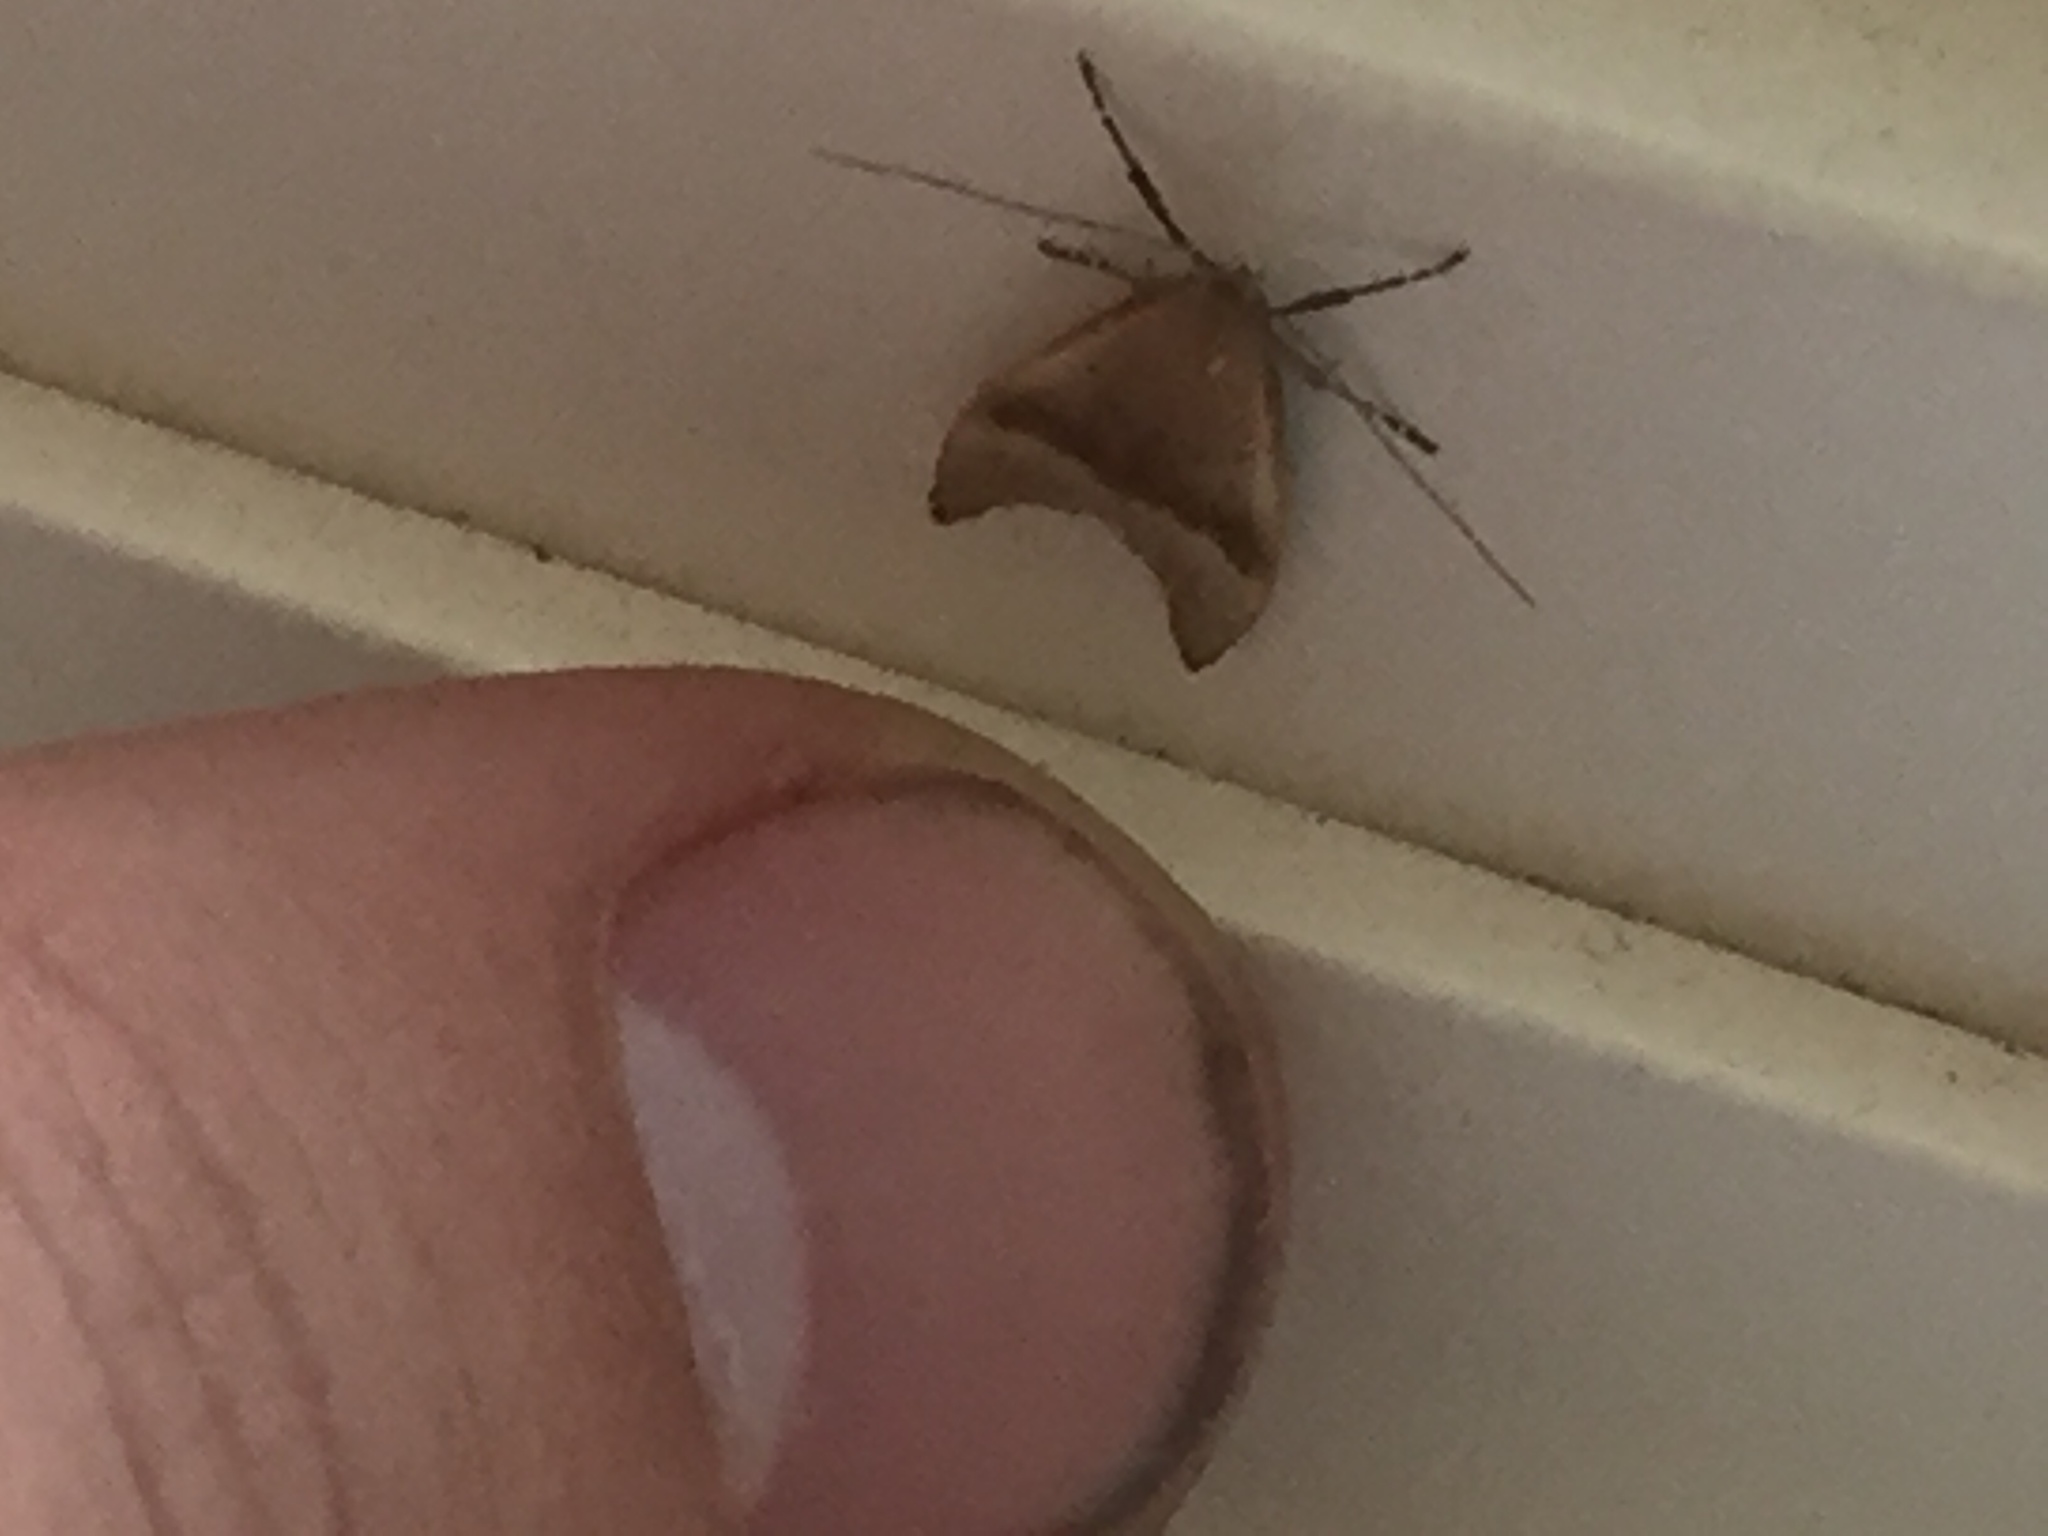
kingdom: Animalia
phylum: Arthropoda
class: Insecta
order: Lepidoptera
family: Oecophoridae
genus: Gymnobathra
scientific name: Gymnobathra hyetodes
